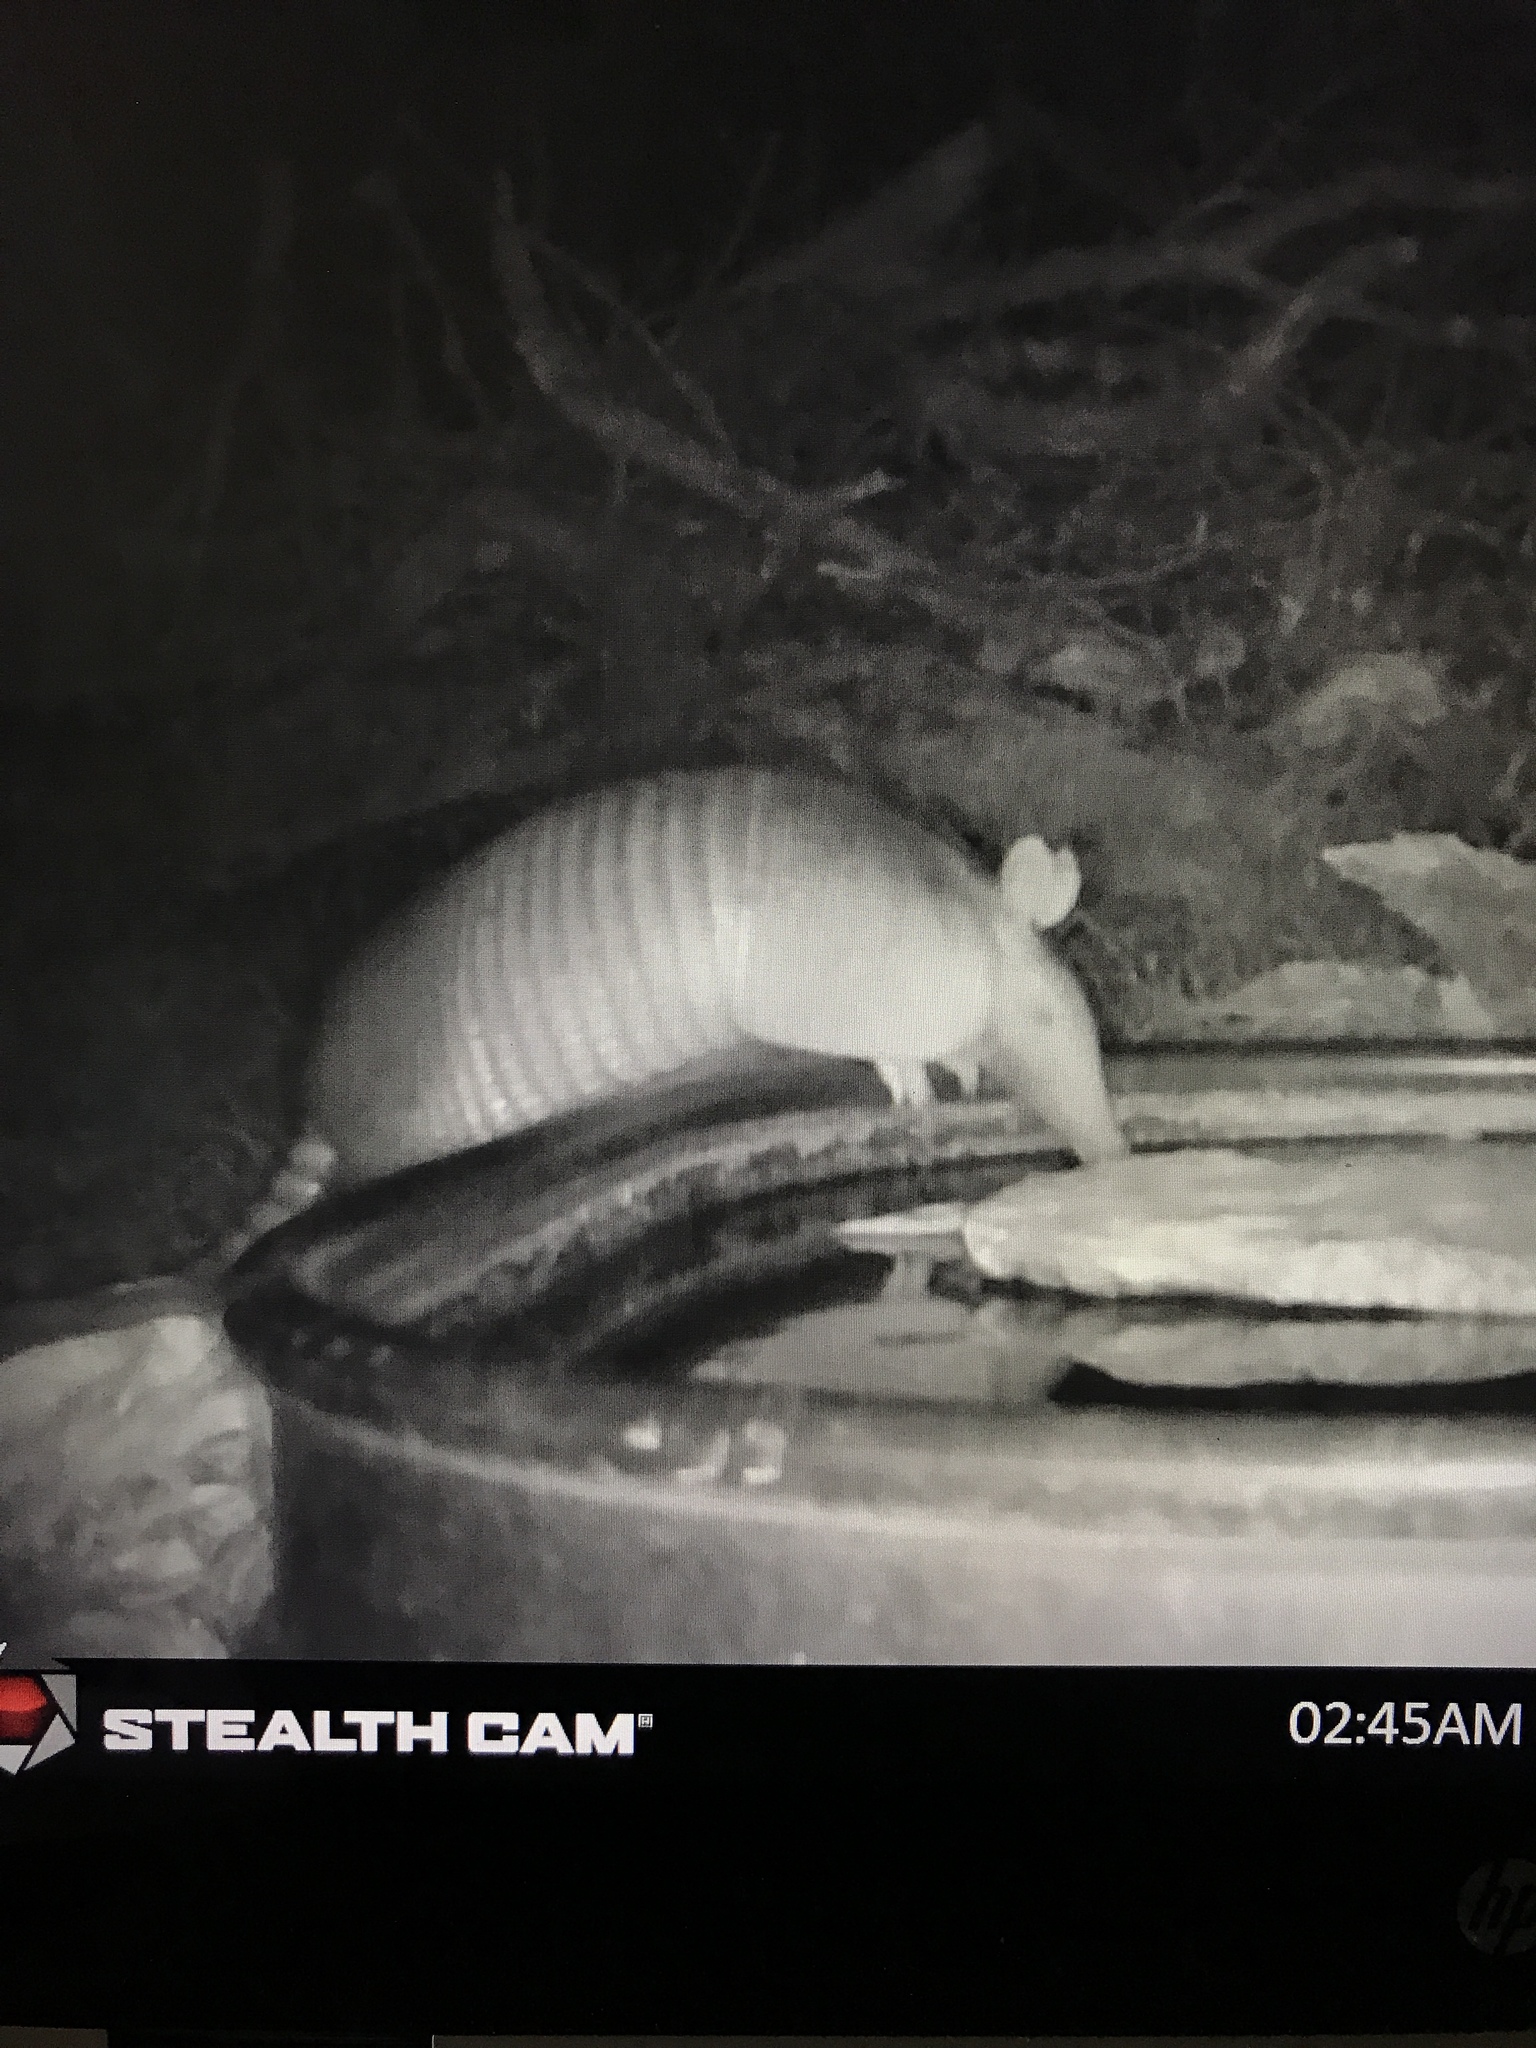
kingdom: Animalia
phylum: Chordata
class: Mammalia
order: Cingulata
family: Dasypodidae
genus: Dasypus
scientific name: Dasypus novemcinctus
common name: Nine-banded armadillo
